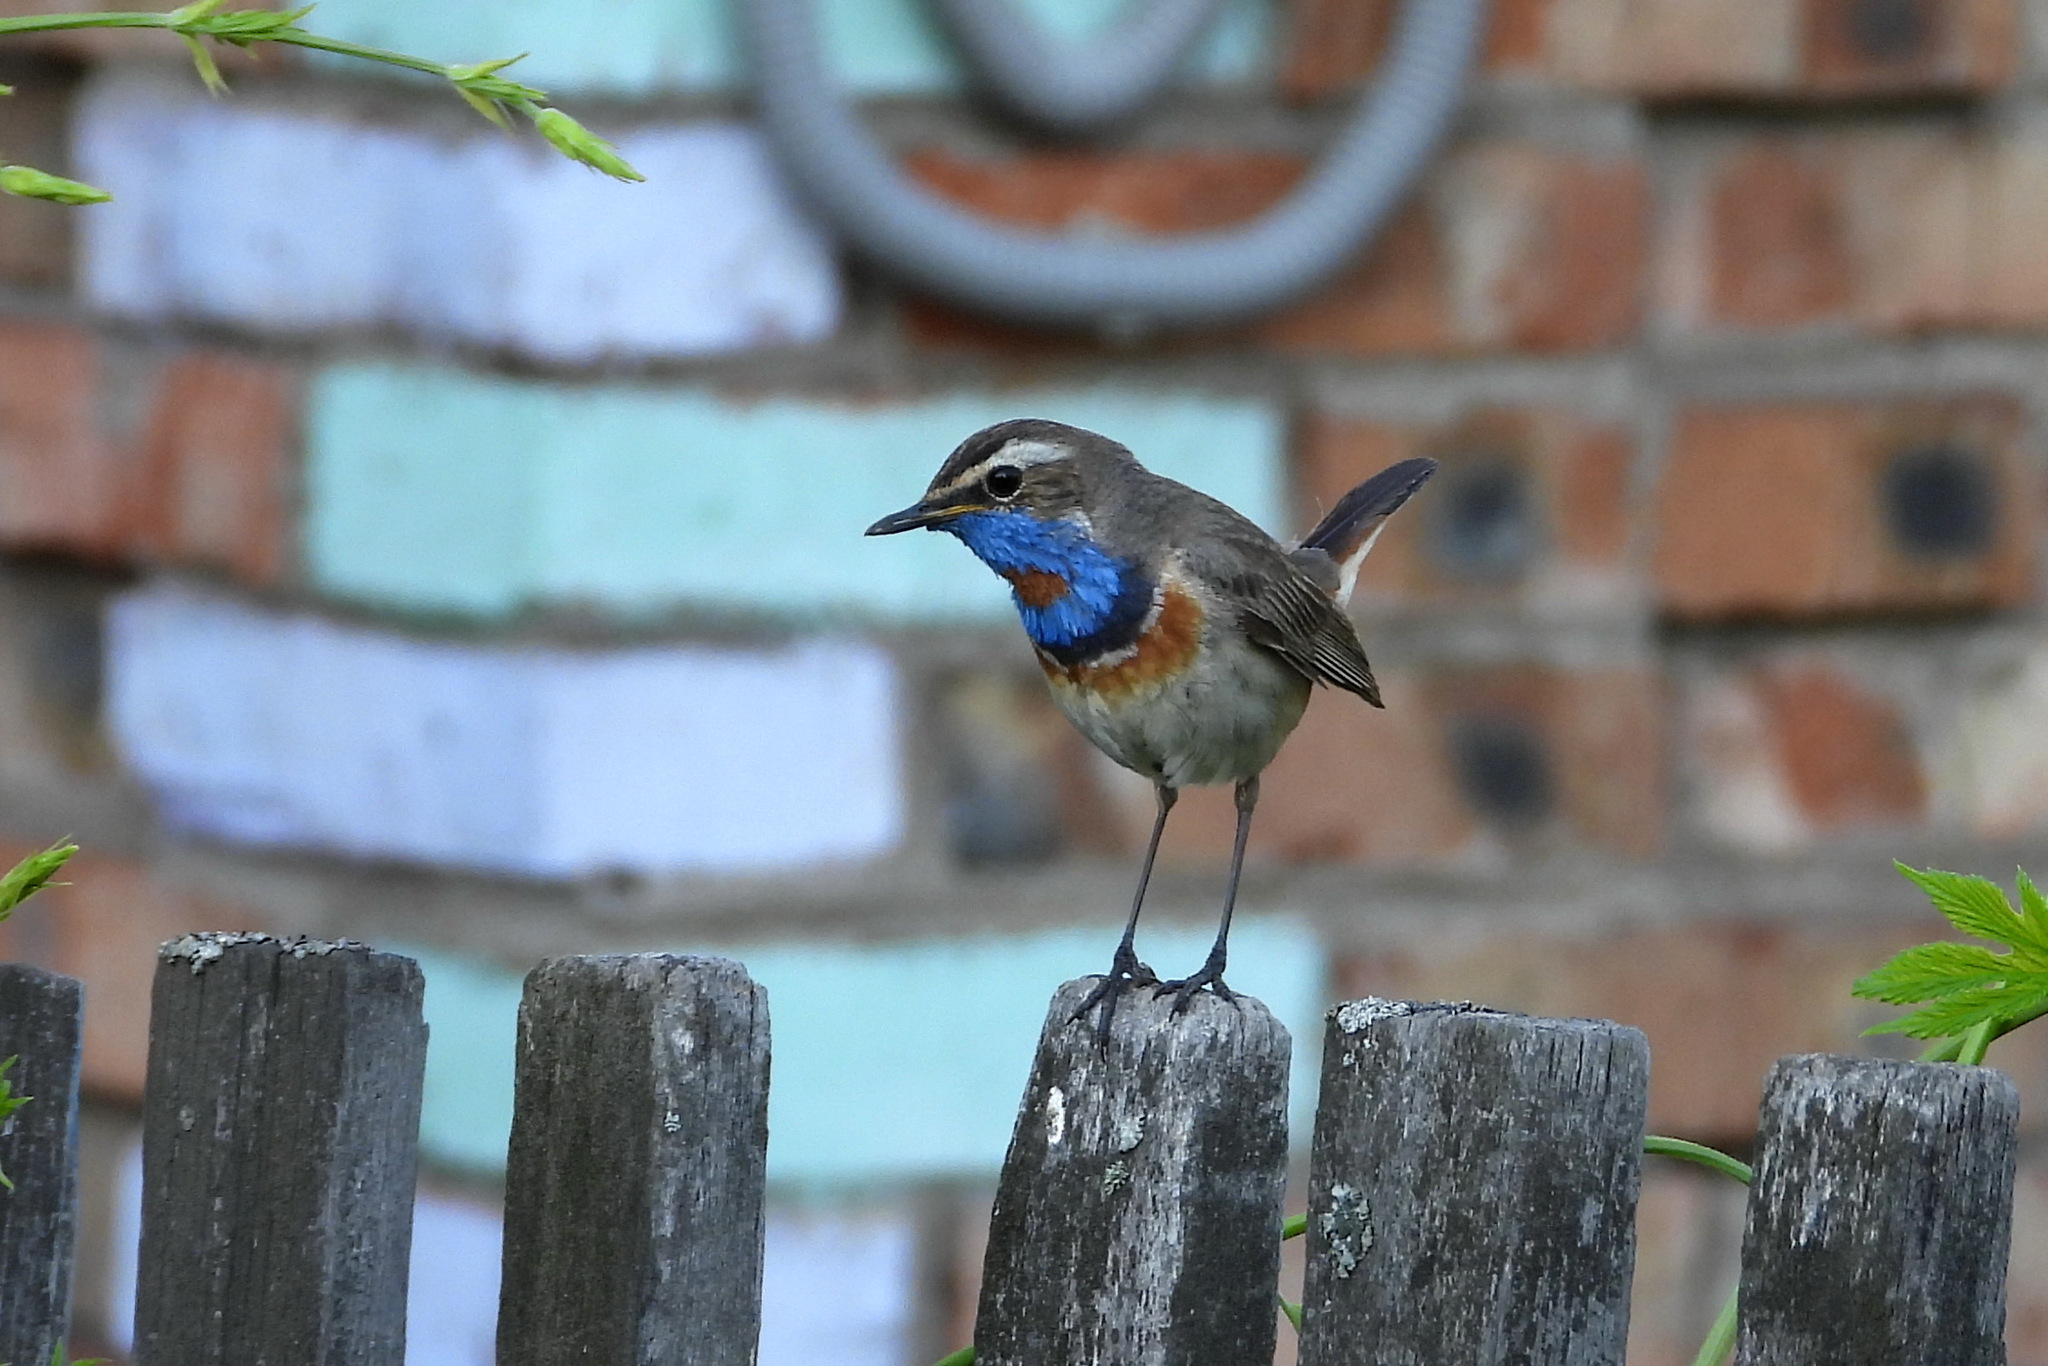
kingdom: Animalia
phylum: Chordata
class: Aves
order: Passeriformes
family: Muscicapidae
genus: Luscinia
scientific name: Luscinia svecica
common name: Bluethroat
